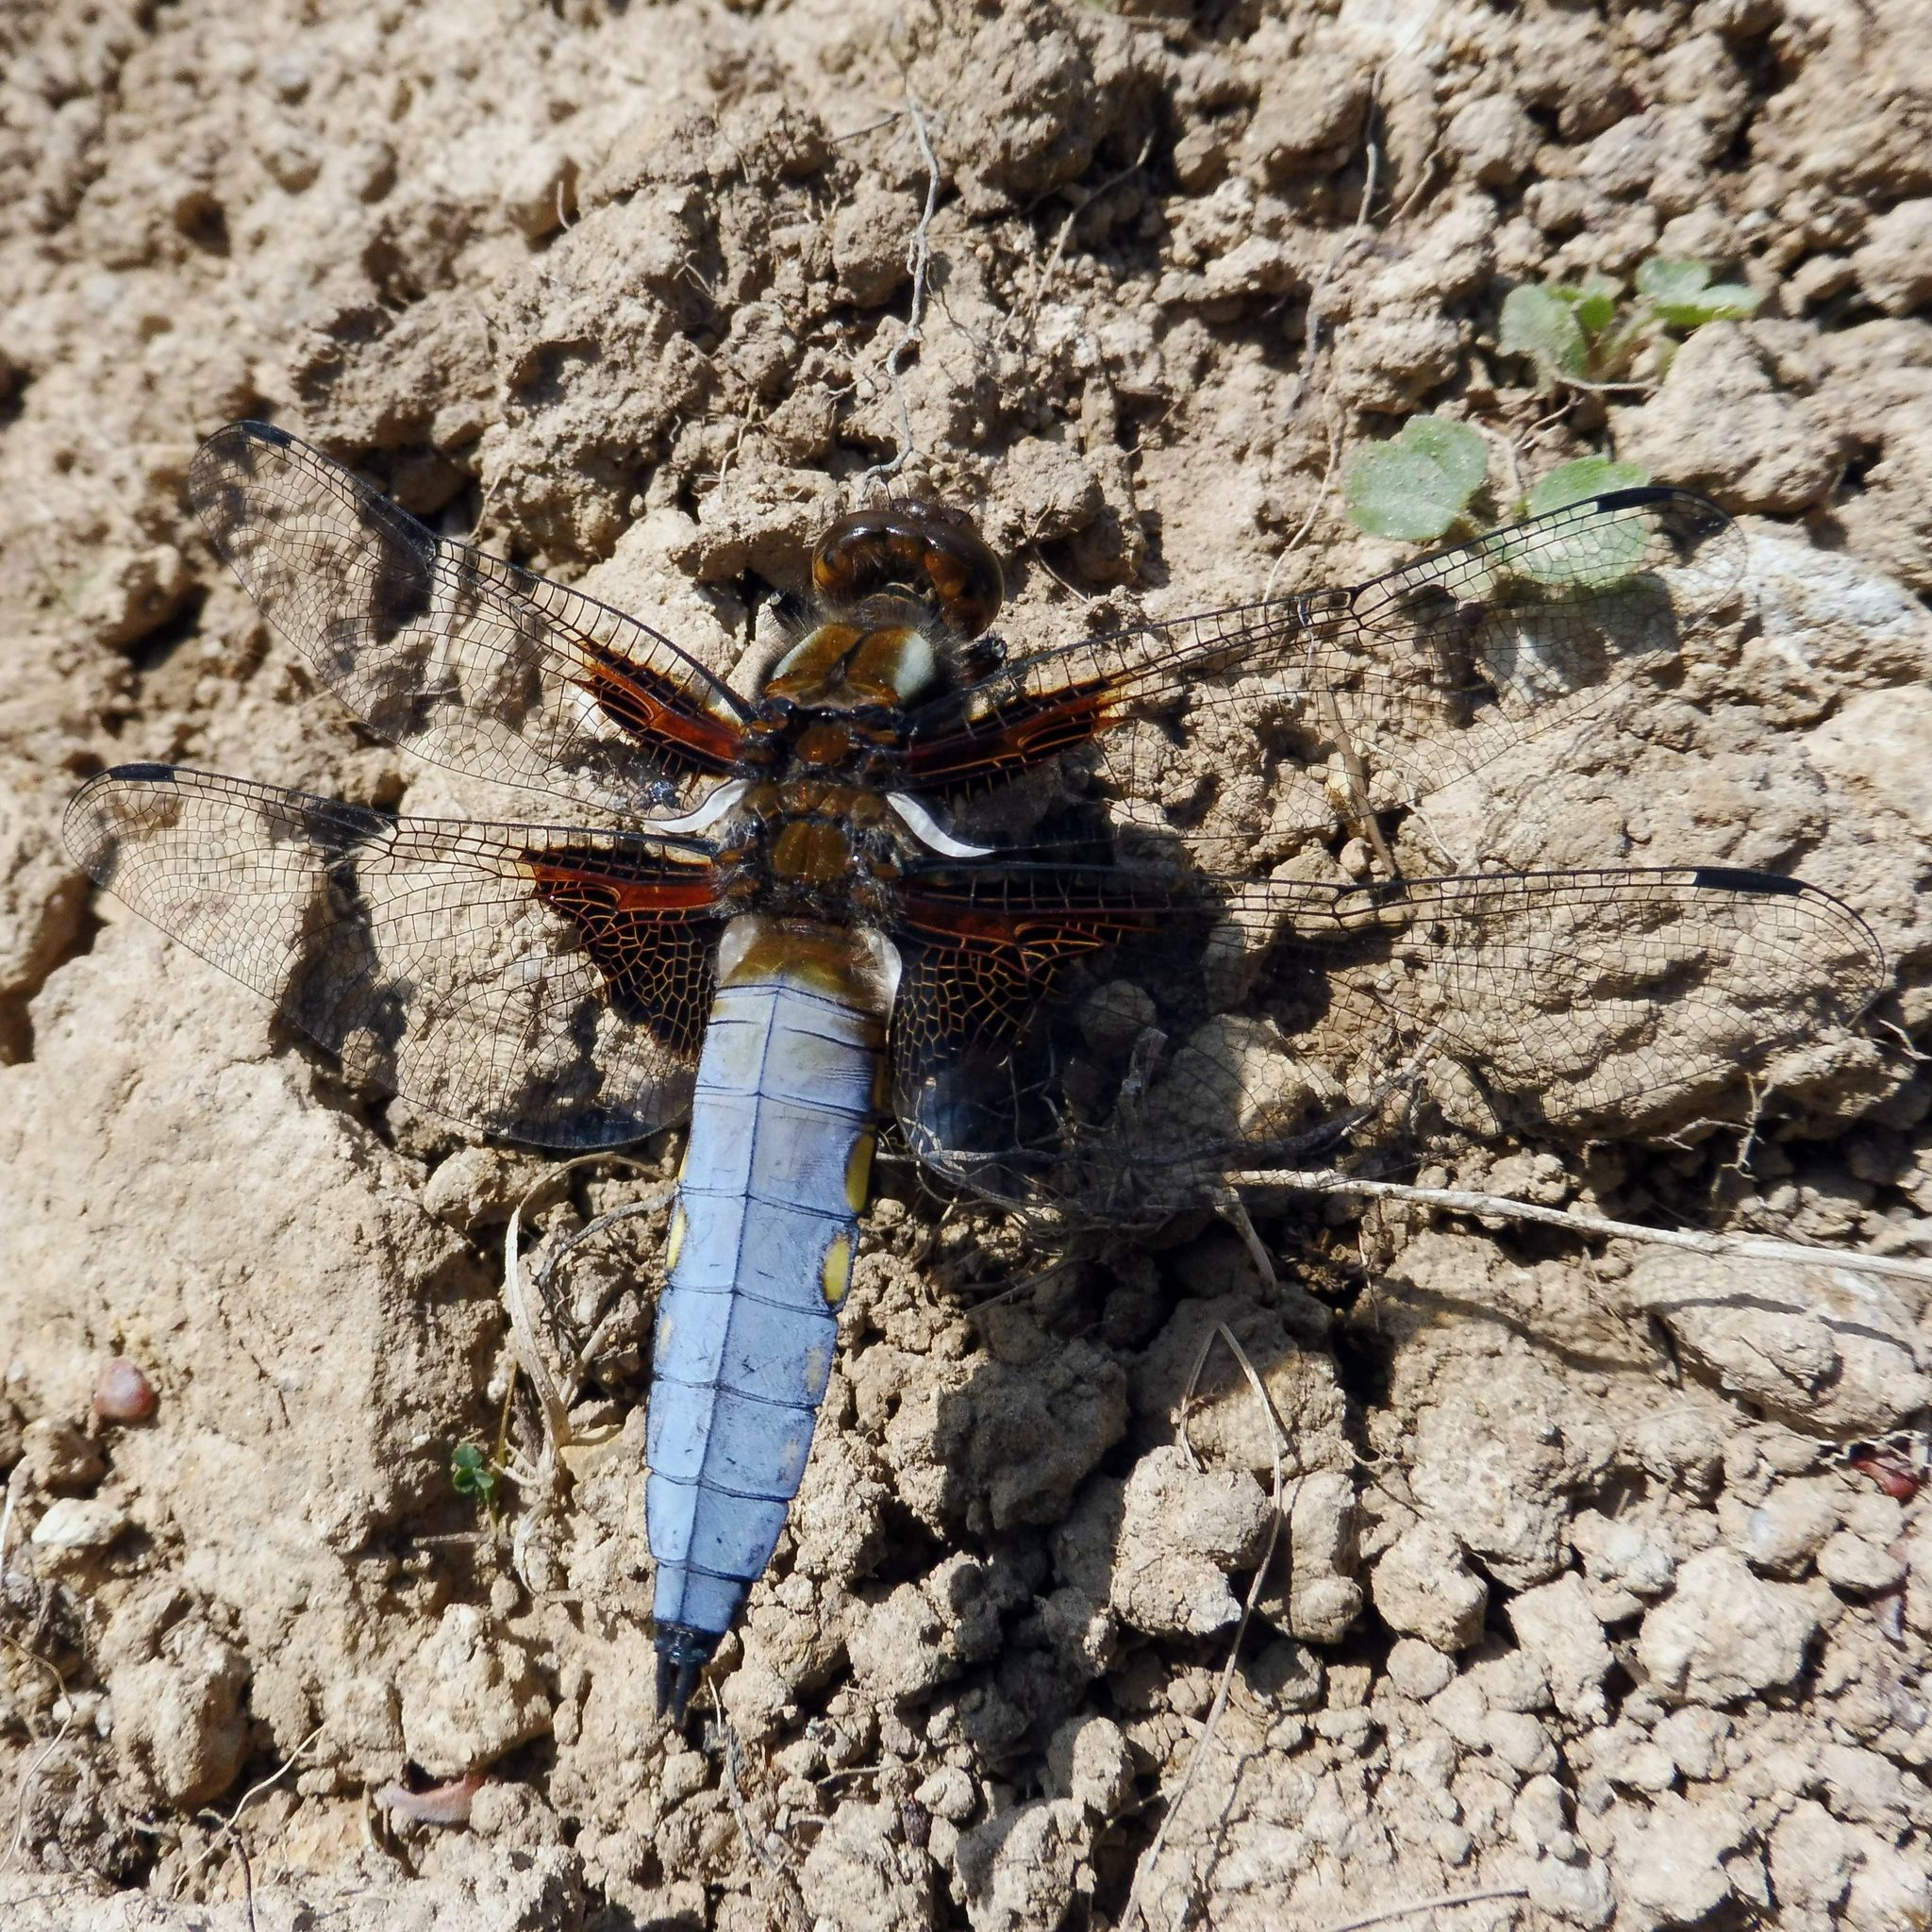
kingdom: Animalia
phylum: Arthropoda
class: Insecta
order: Odonata
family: Libellulidae
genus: Libellula
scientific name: Libellula depressa
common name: Broad-bodied chaser
